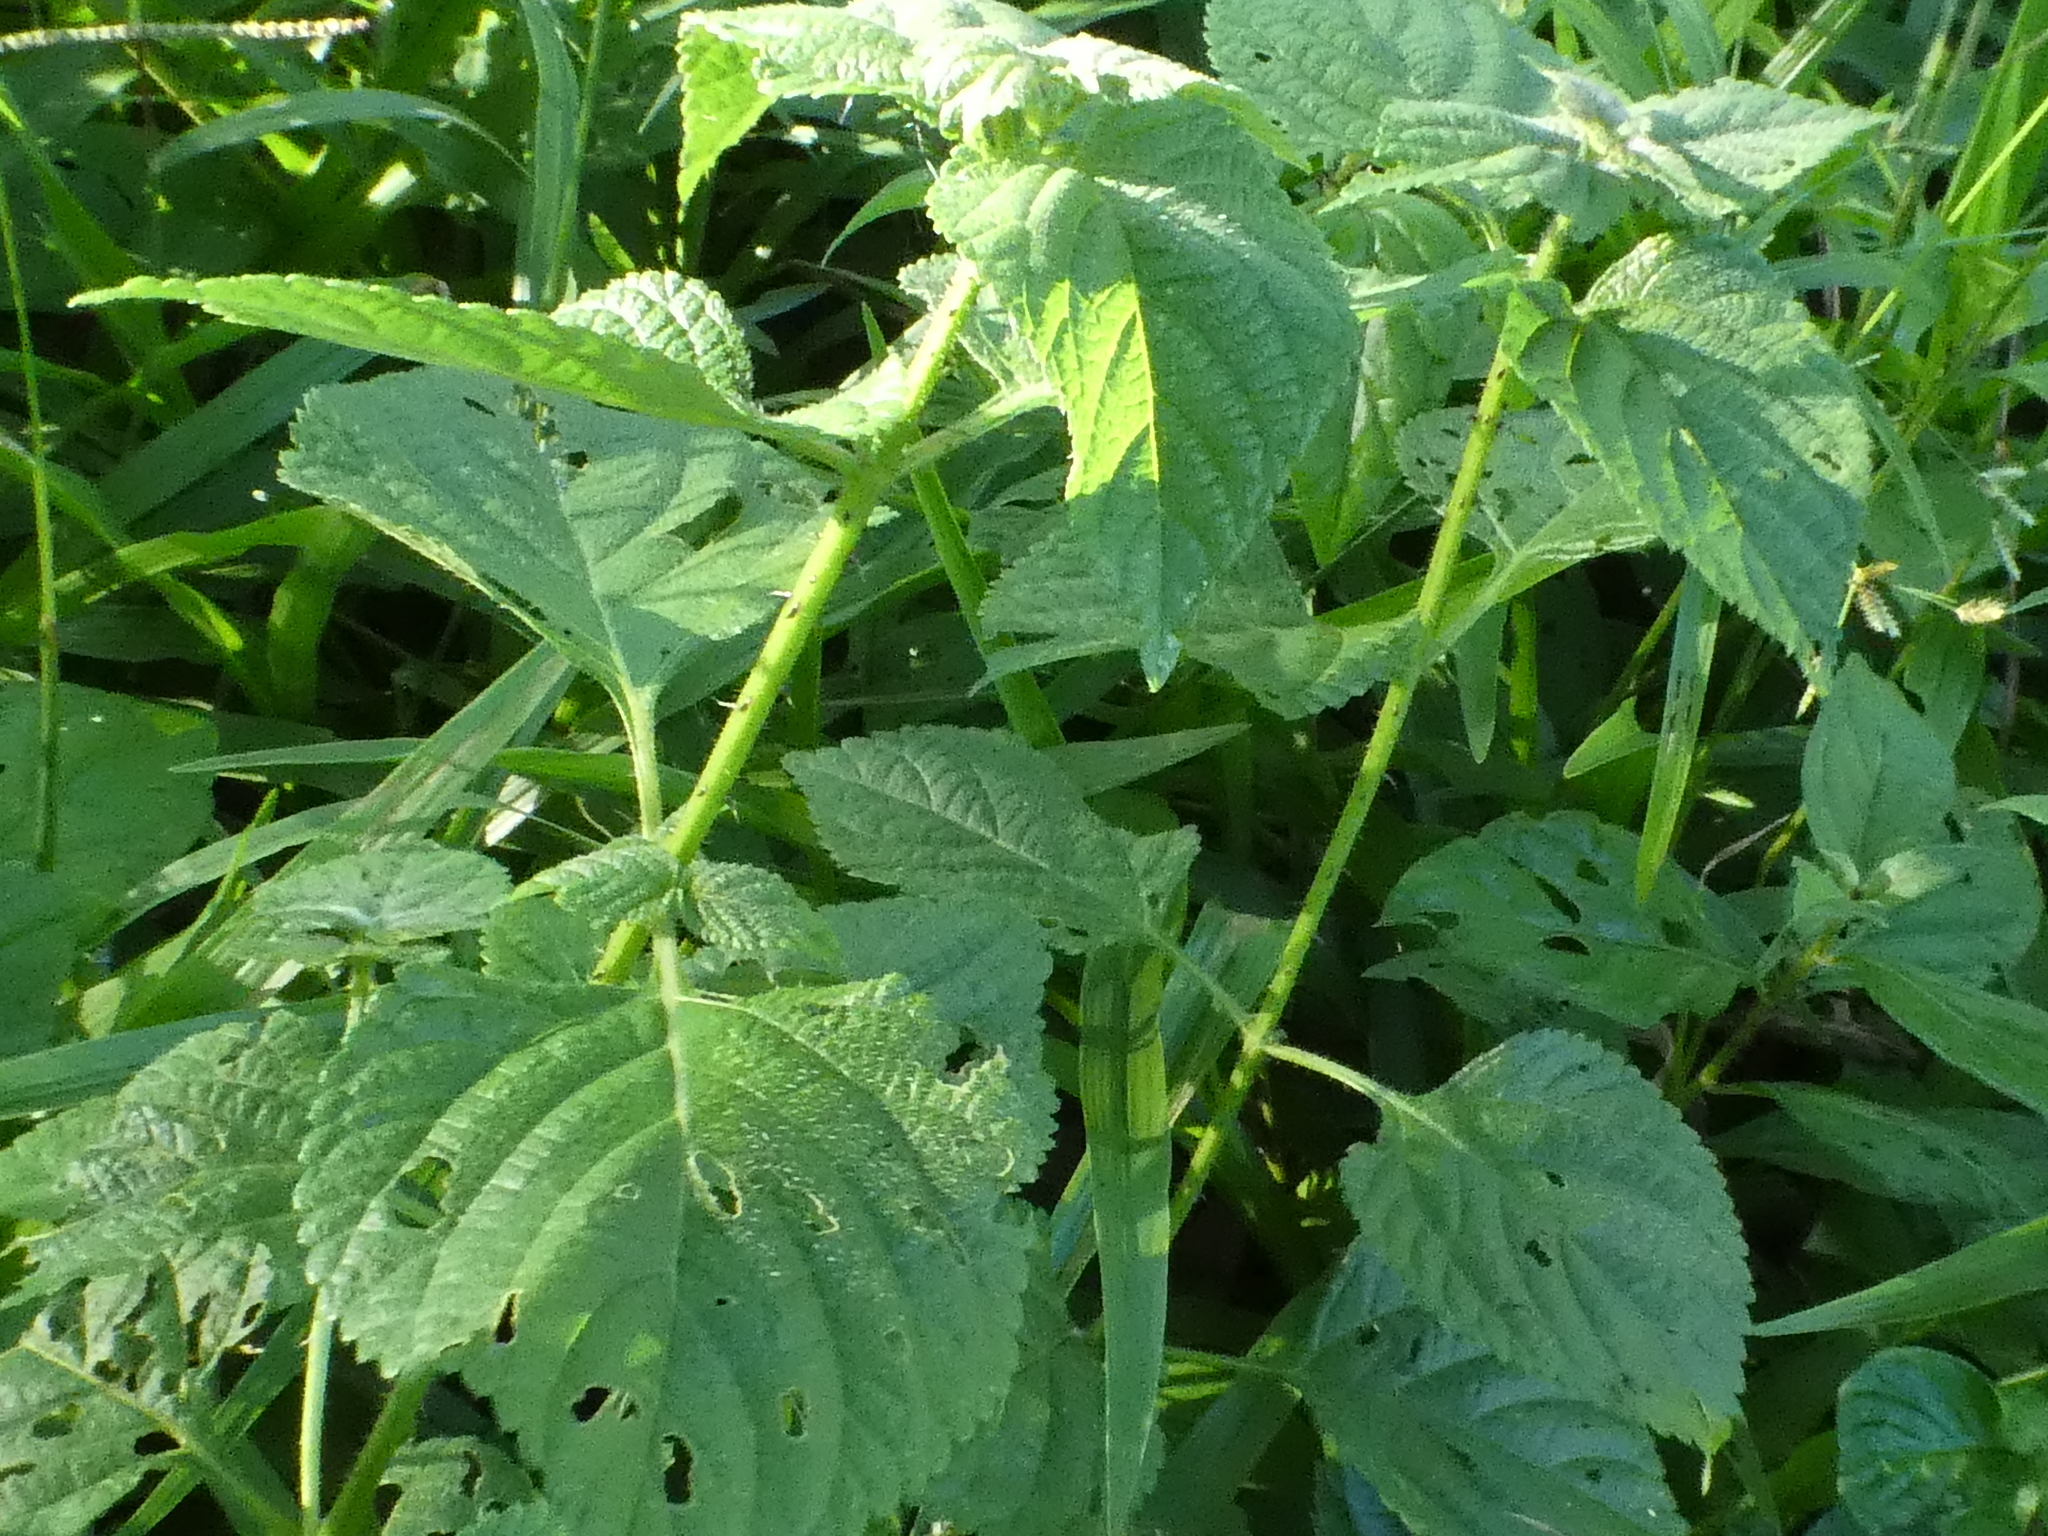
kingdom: Plantae
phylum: Tracheophyta
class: Magnoliopsida
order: Lamiales
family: Verbenaceae
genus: Lantana
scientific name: Lantana camara
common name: Lantana
